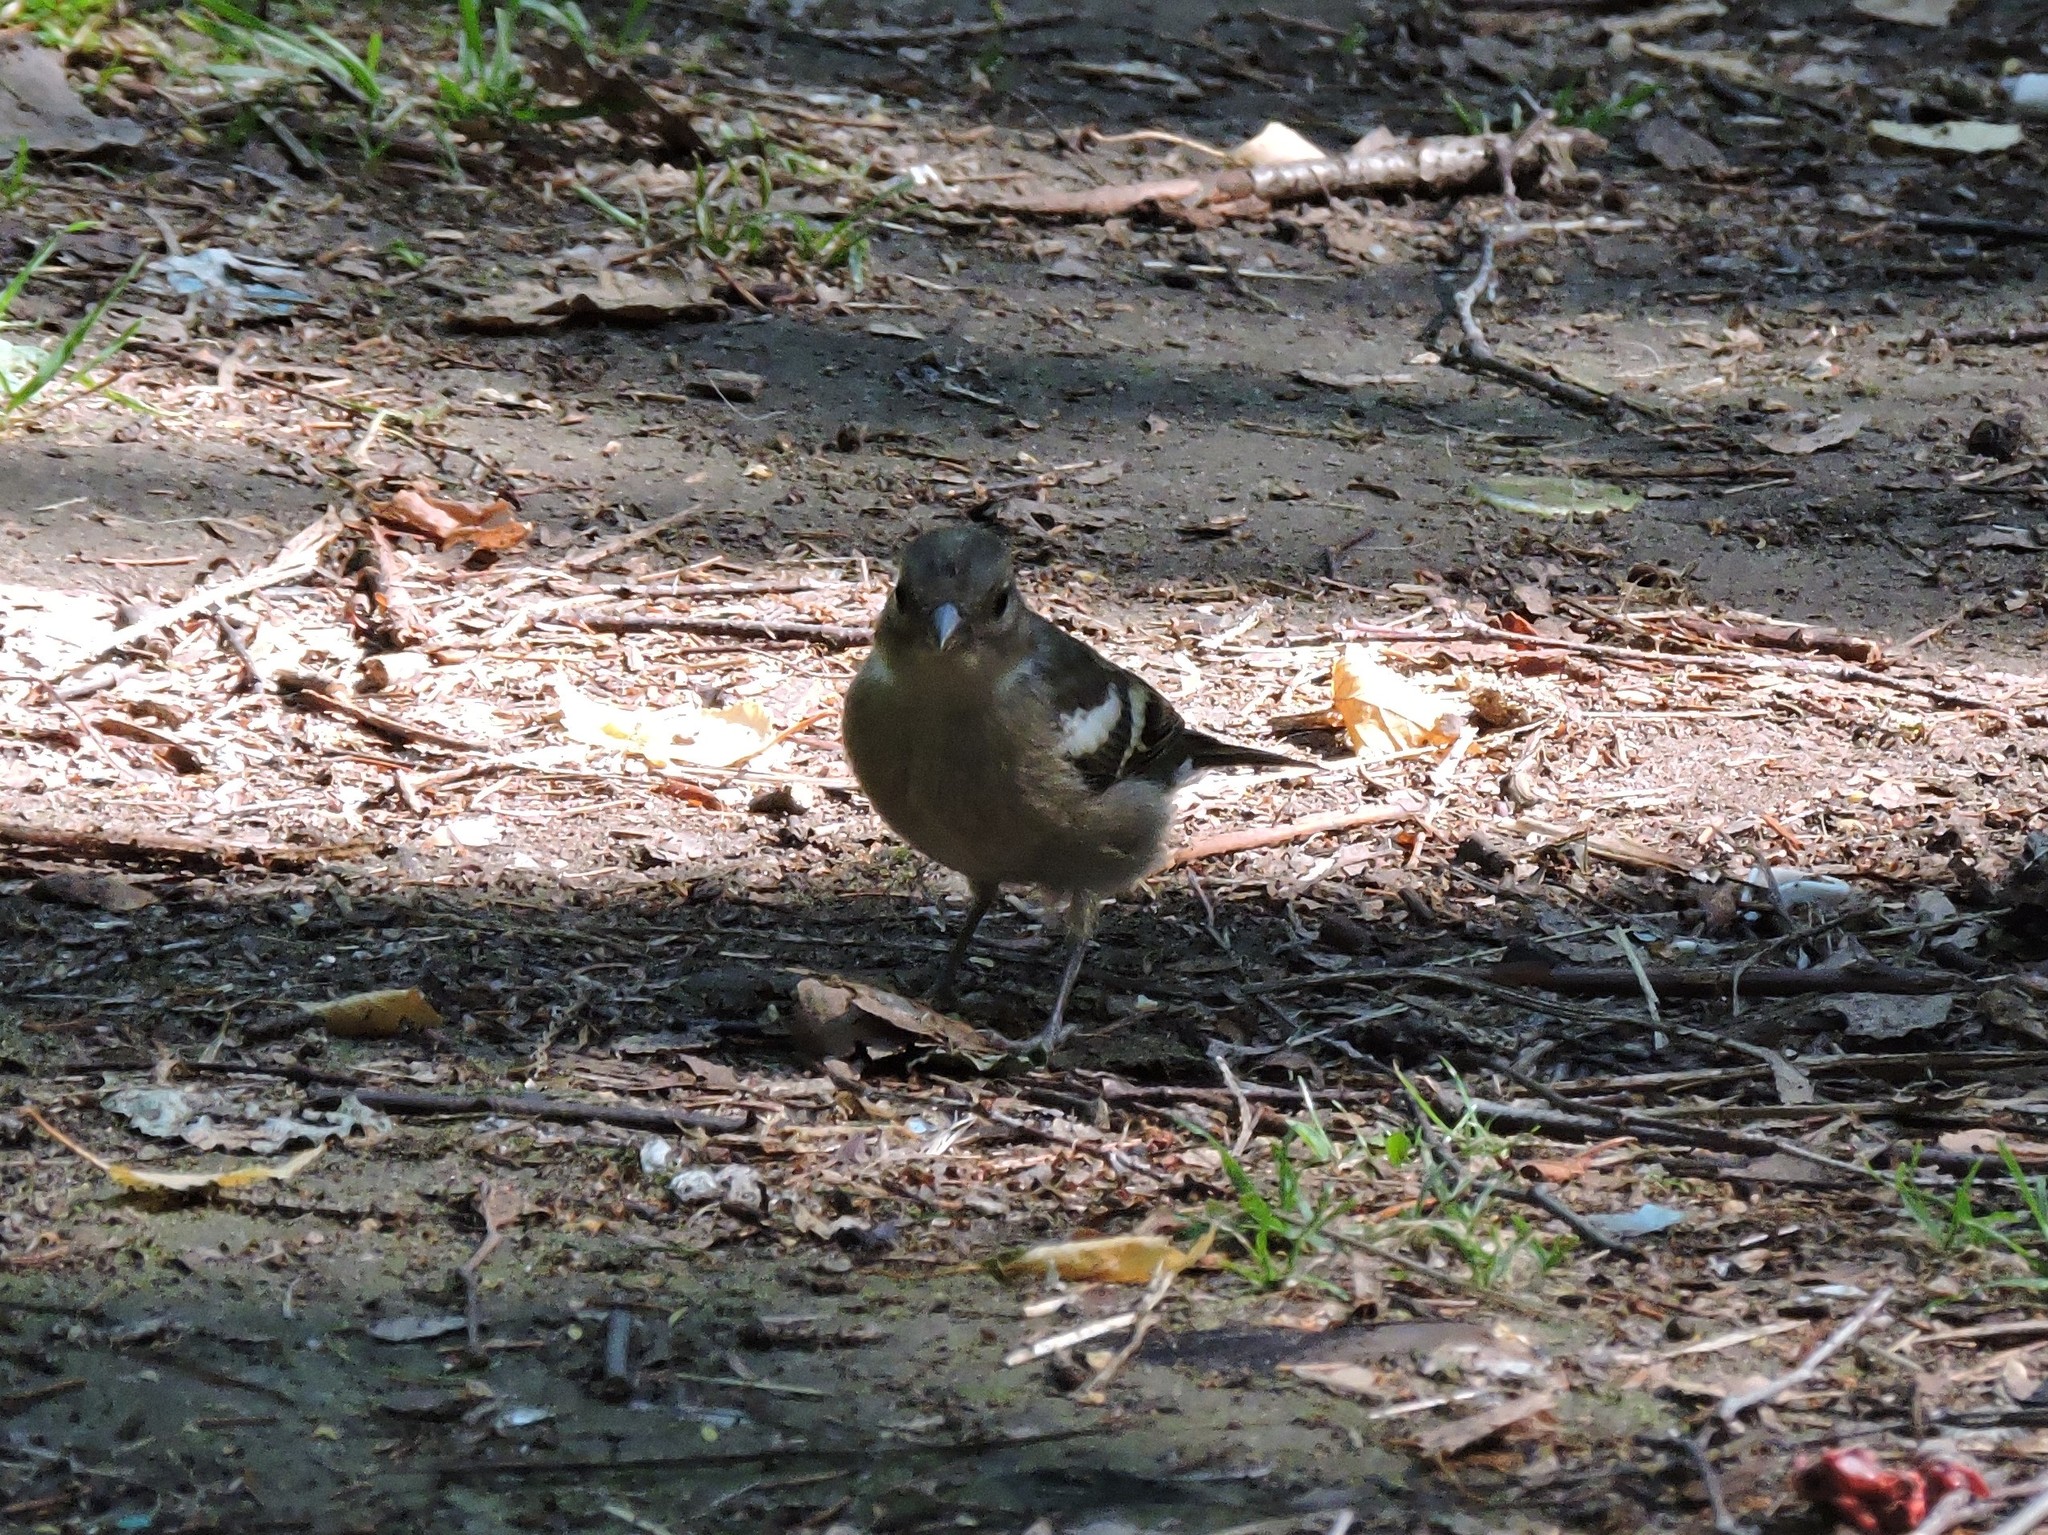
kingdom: Animalia
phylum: Chordata
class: Aves
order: Passeriformes
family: Fringillidae
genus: Fringilla
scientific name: Fringilla coelebs
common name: Common chaffinch
